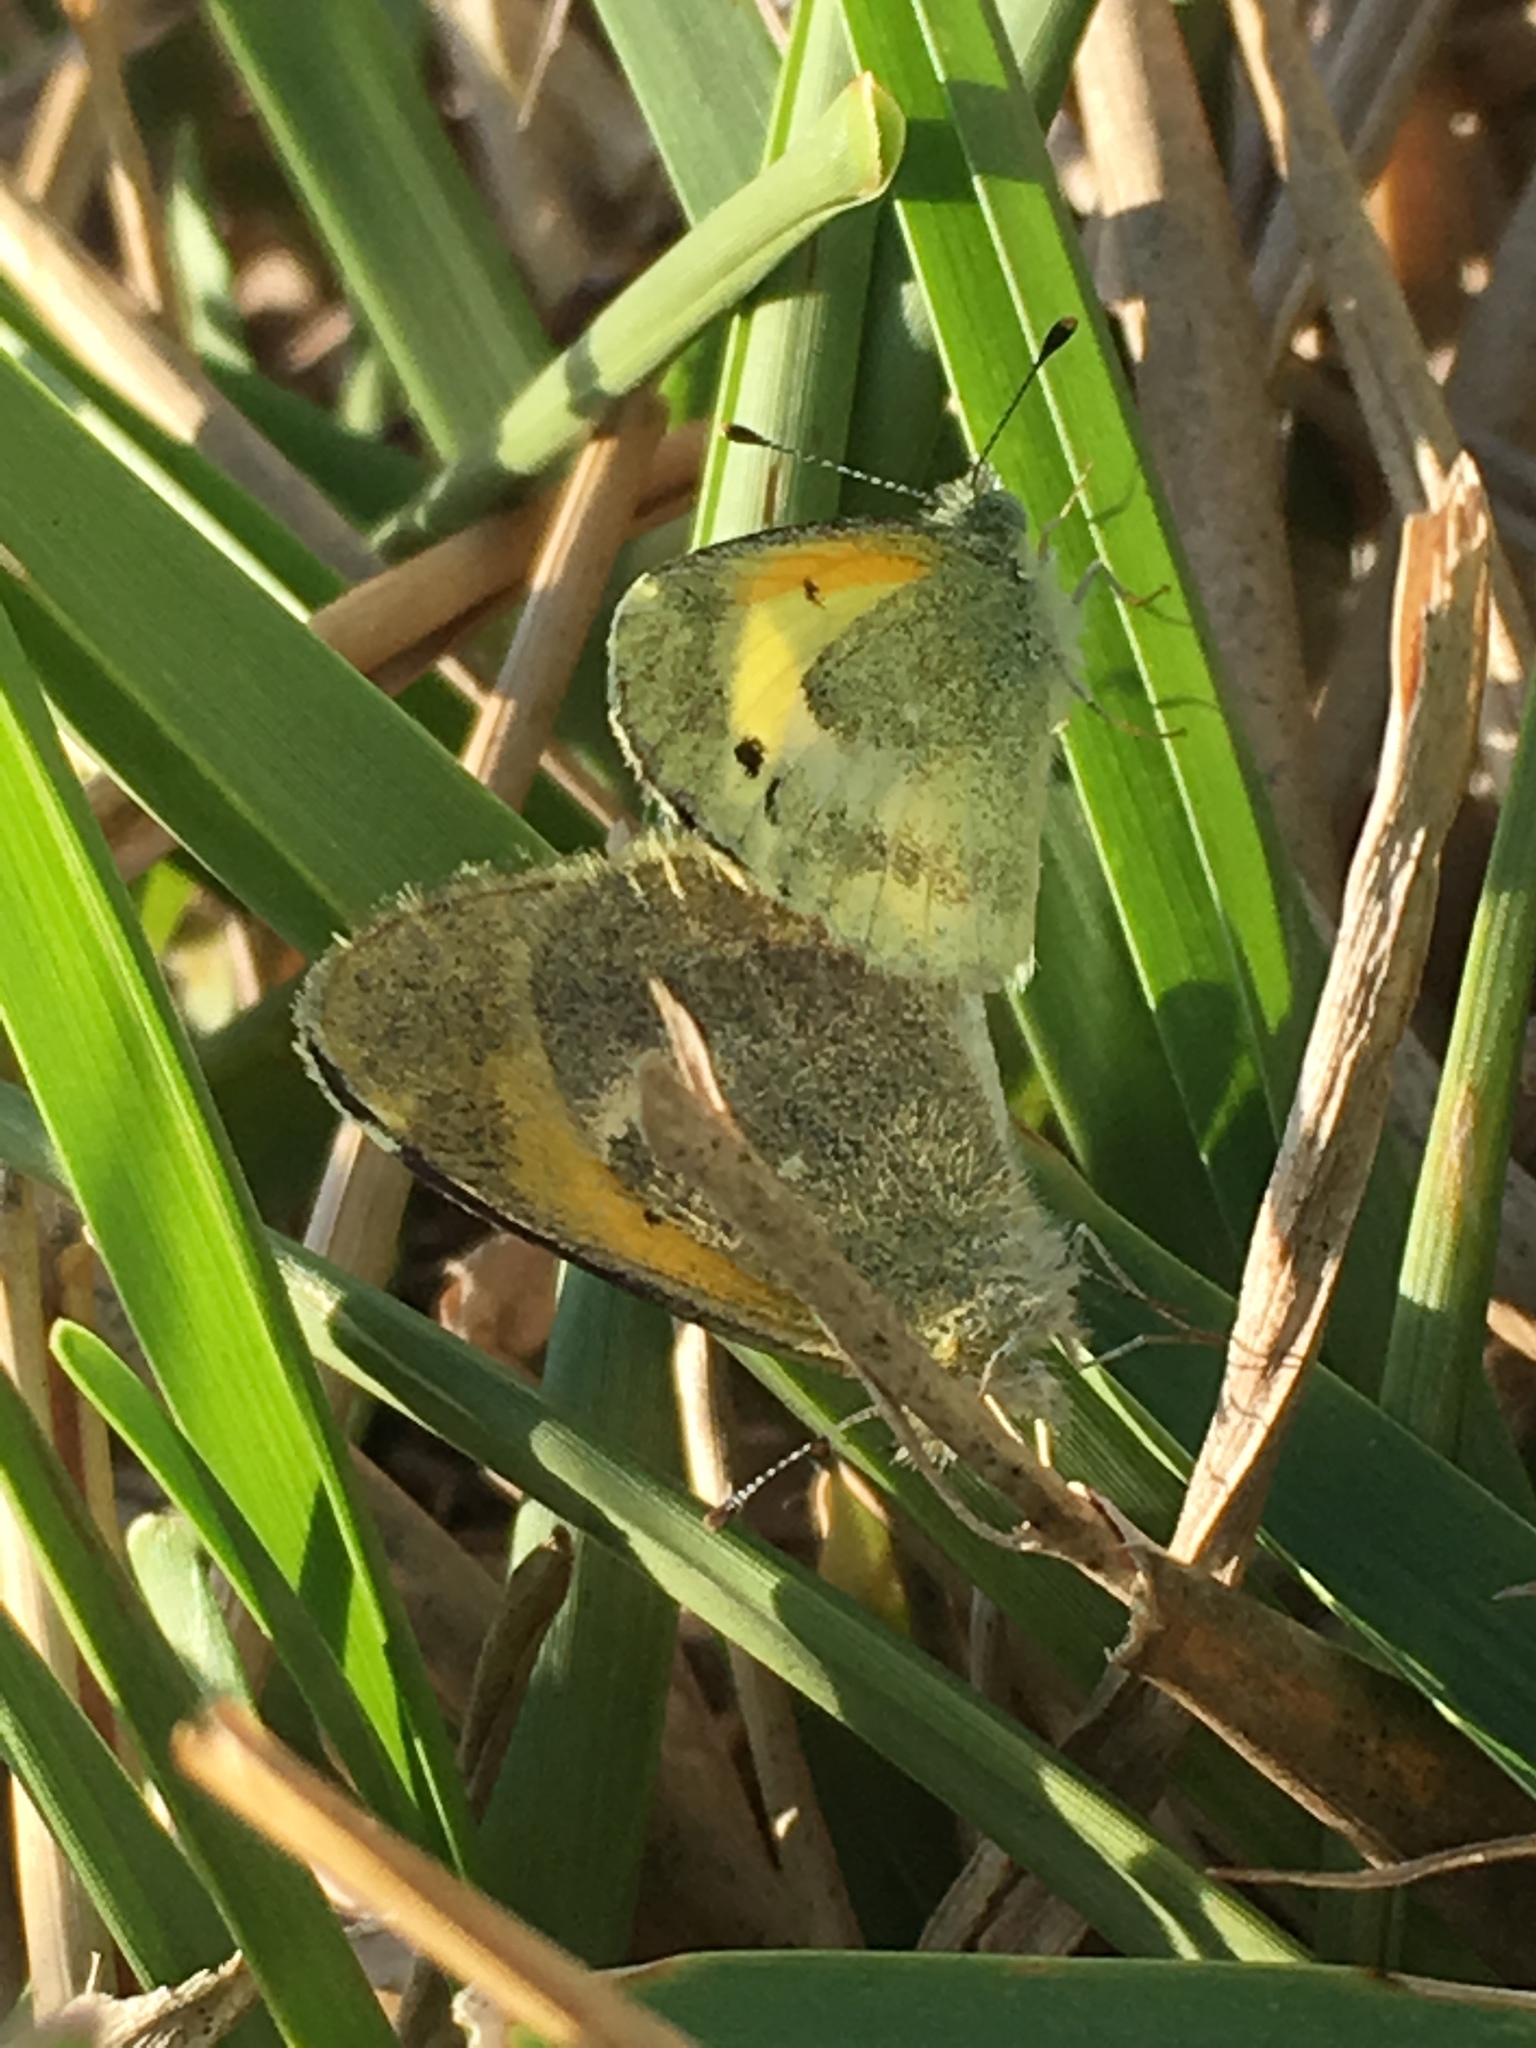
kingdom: Animalia
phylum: Arthropoda
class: Insecta
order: Lepidoptera
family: Pieridae
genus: Nathalis
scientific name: Nathalis iole
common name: Dainty sulphur
